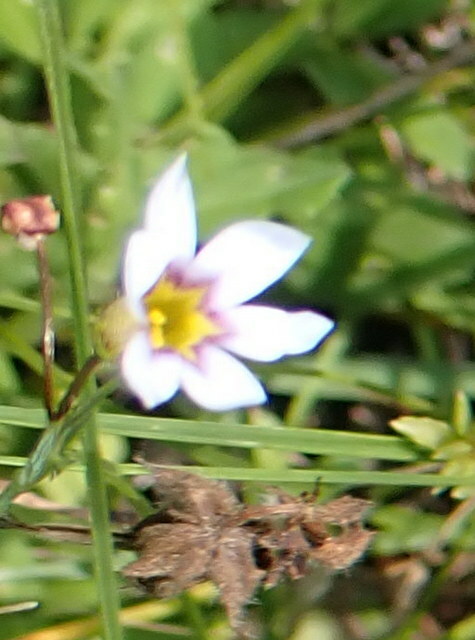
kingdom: Plantae
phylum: Tracheophyta
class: Liliopsida
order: Asparagales
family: Iridaceae
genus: Sisyrinchium
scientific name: Sisyrinchium micranthum
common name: Bermuda pigroot
